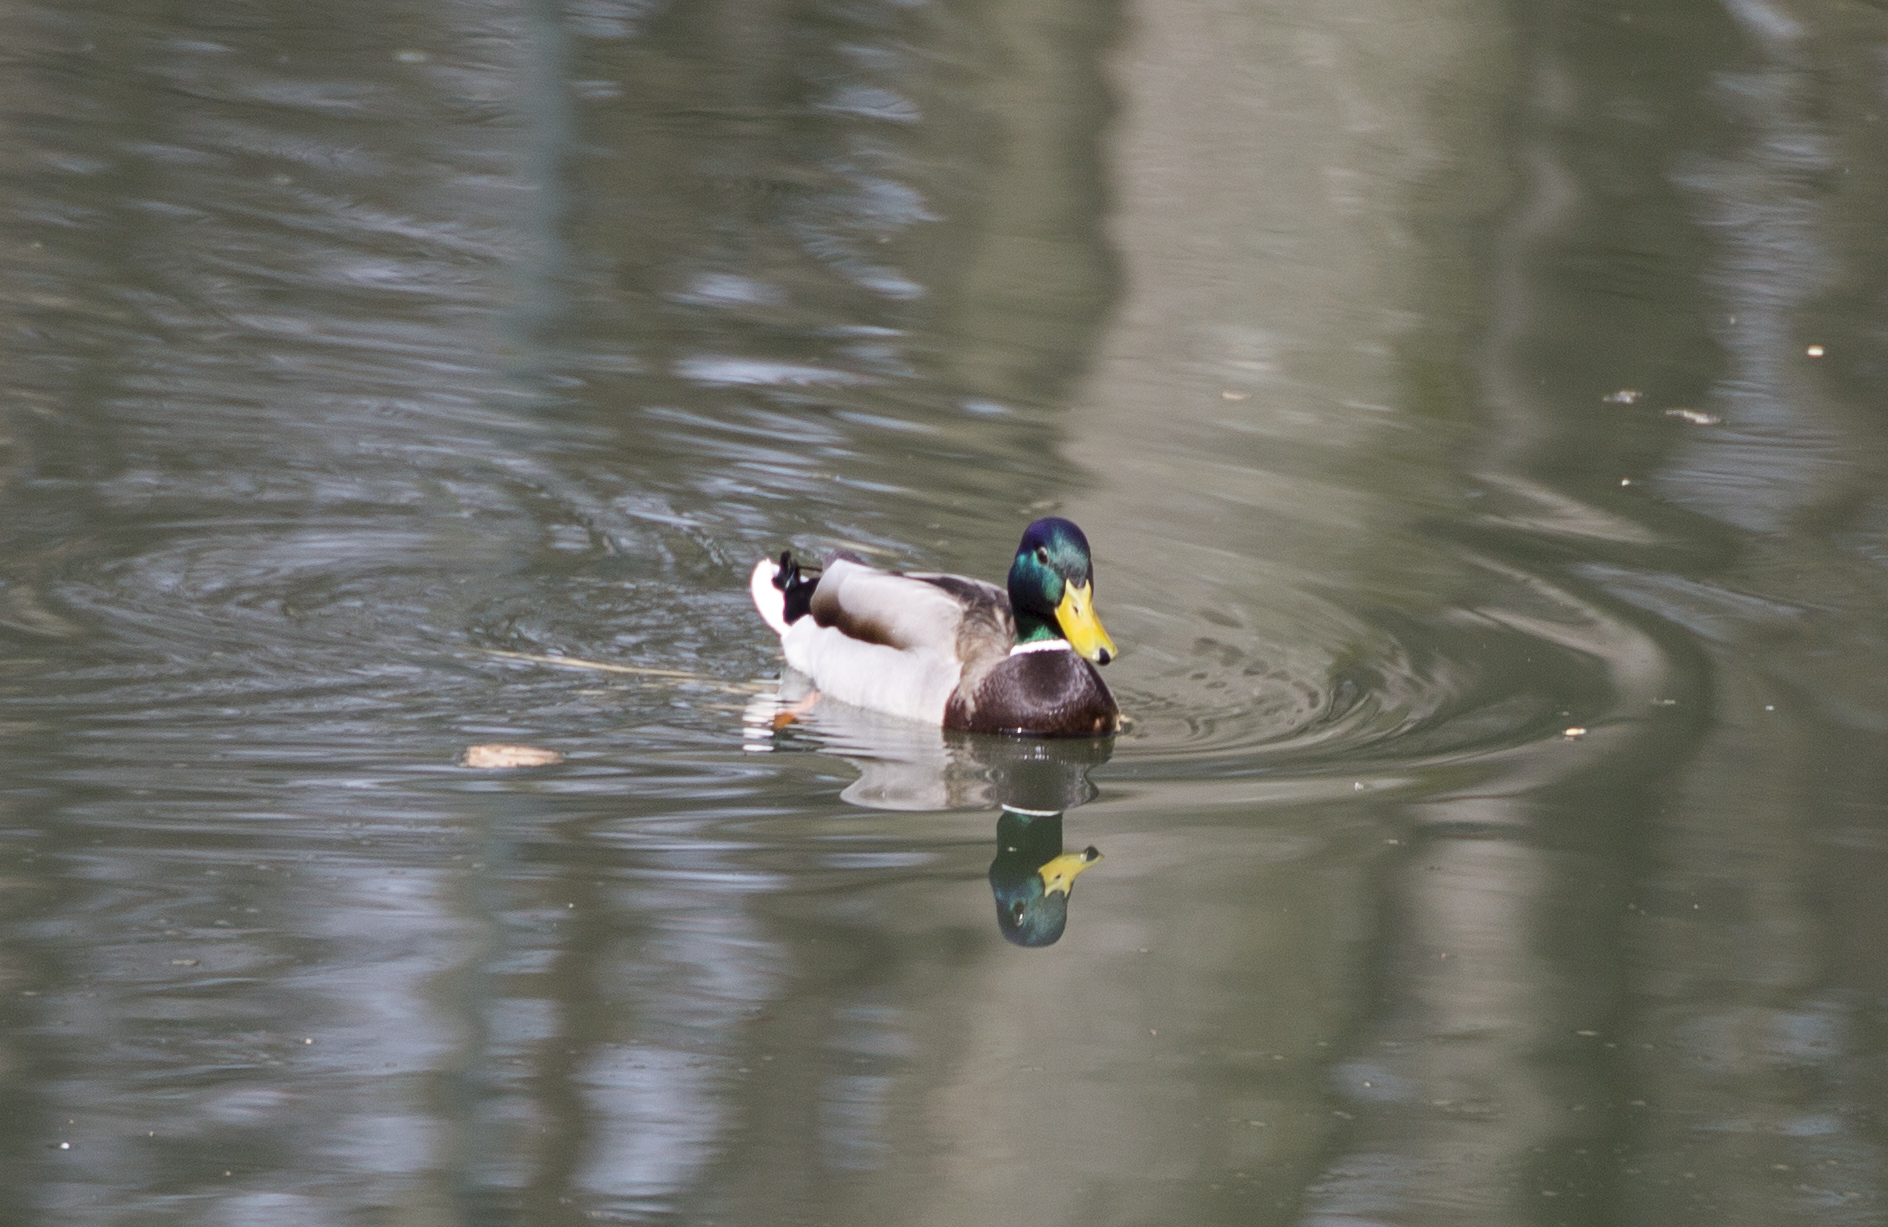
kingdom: Animalia
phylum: Chordata
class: Aves
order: Anseriformes
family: Anatidae
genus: Anas
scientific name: Anas platyrhynchos
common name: Mallard
